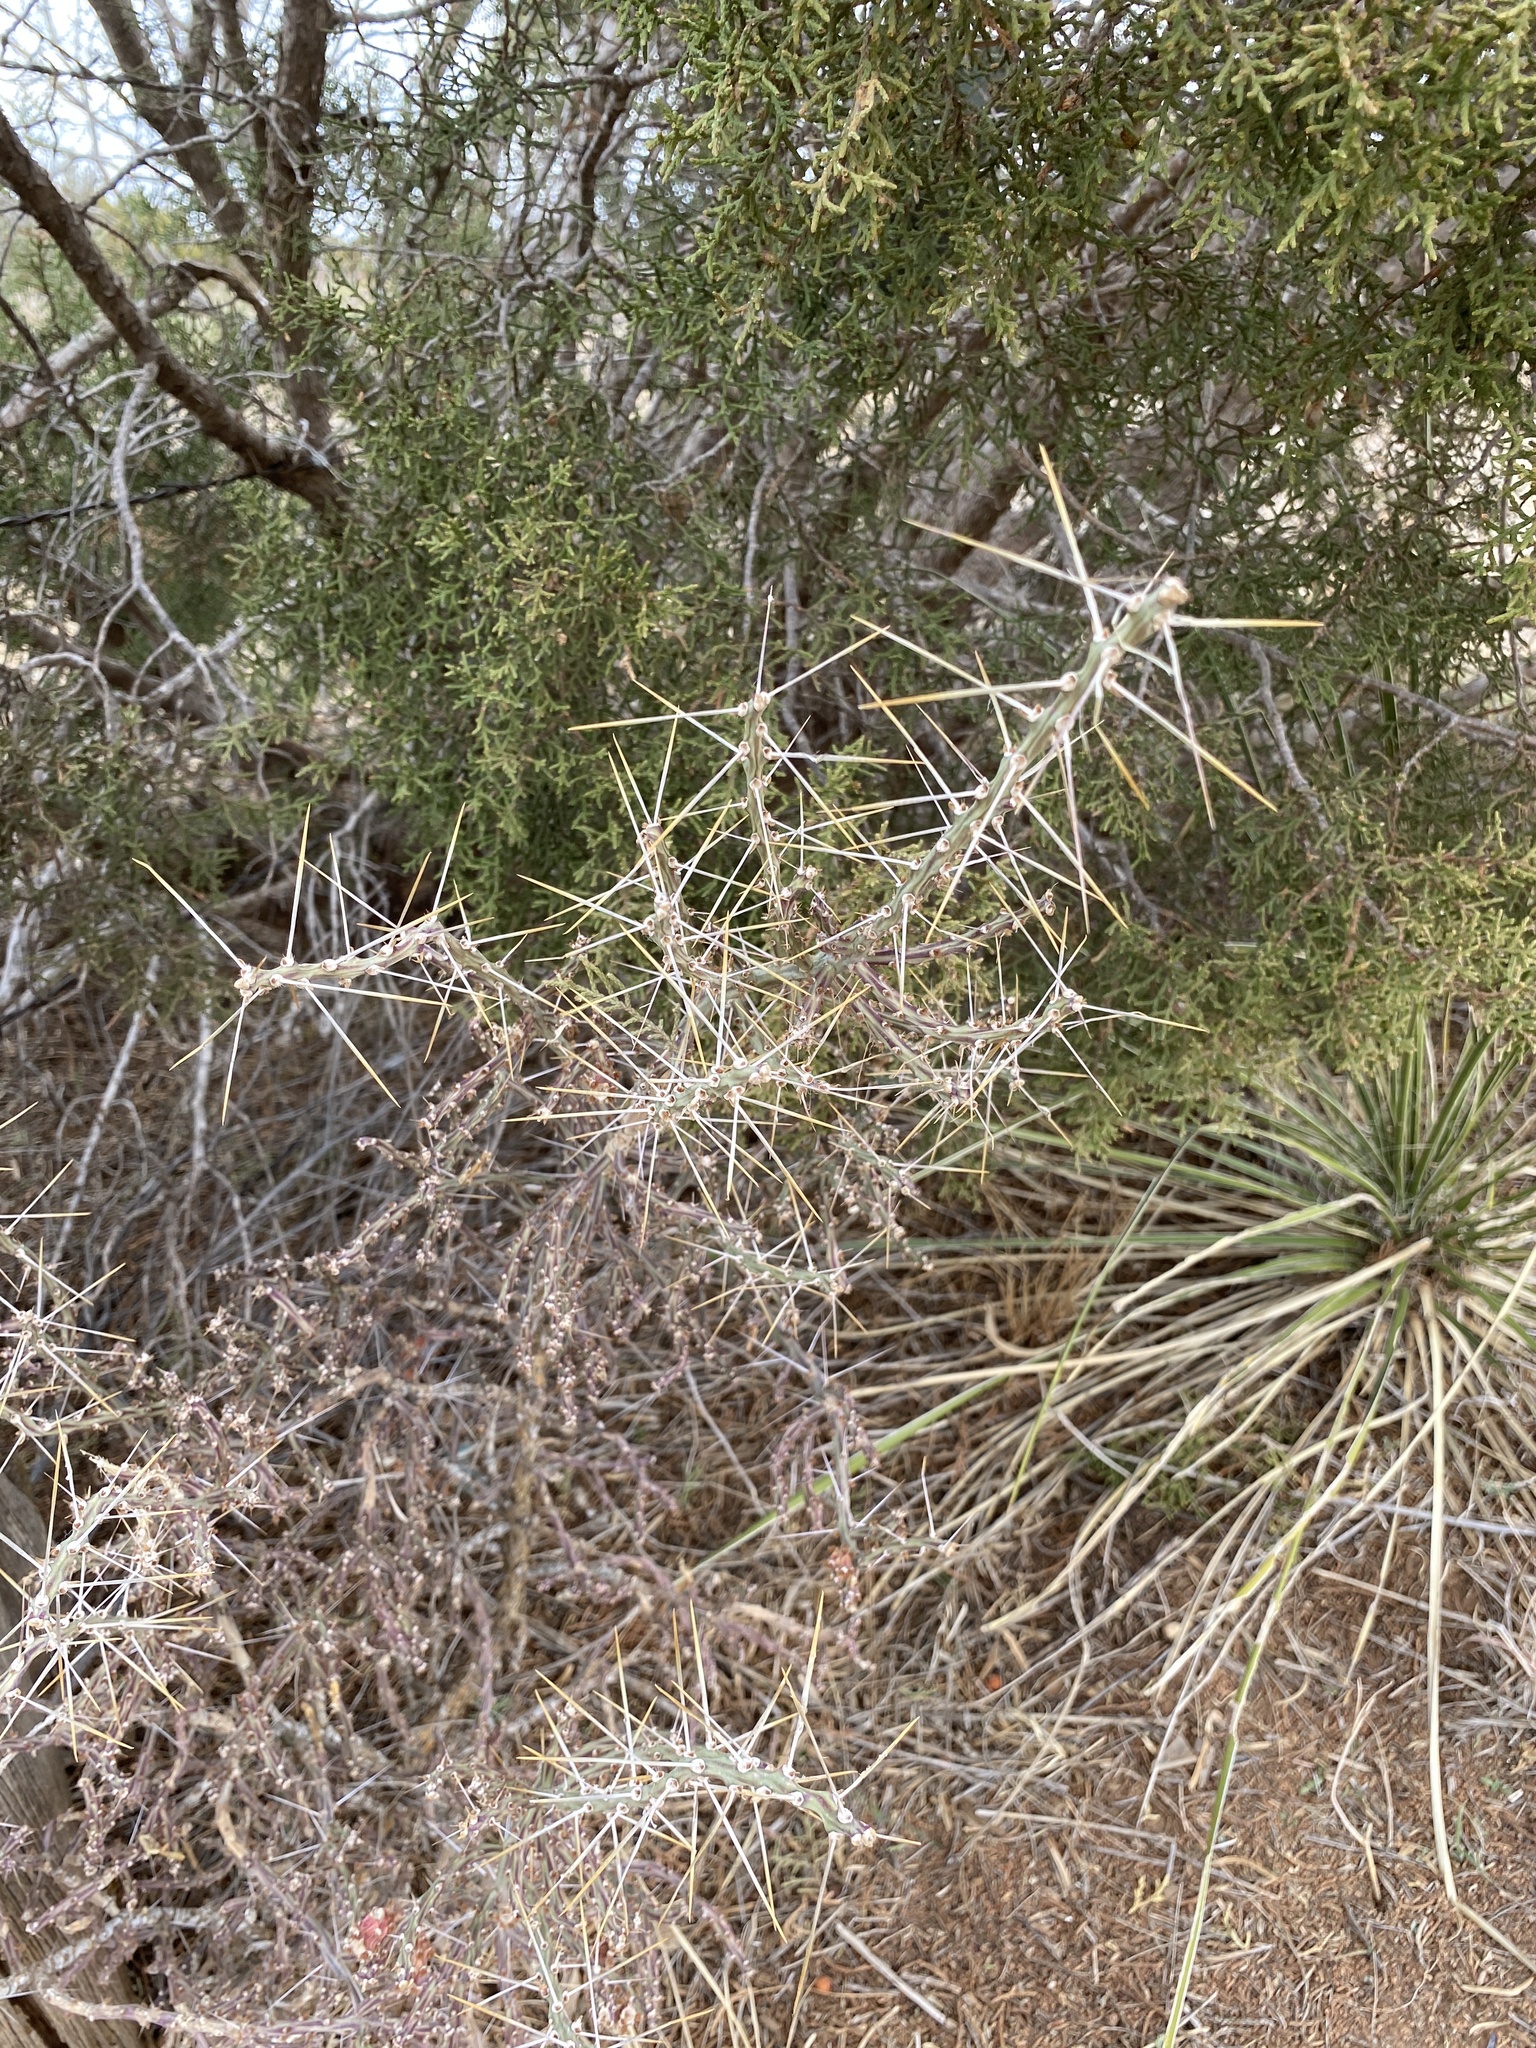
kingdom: Plantae
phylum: Tracheophyta
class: Magnoliopsida
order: Caryophyllales
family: Cactaceae
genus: Cylindropuntia
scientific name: Cylindropuntia leptocaulis
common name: Christmas cactus
